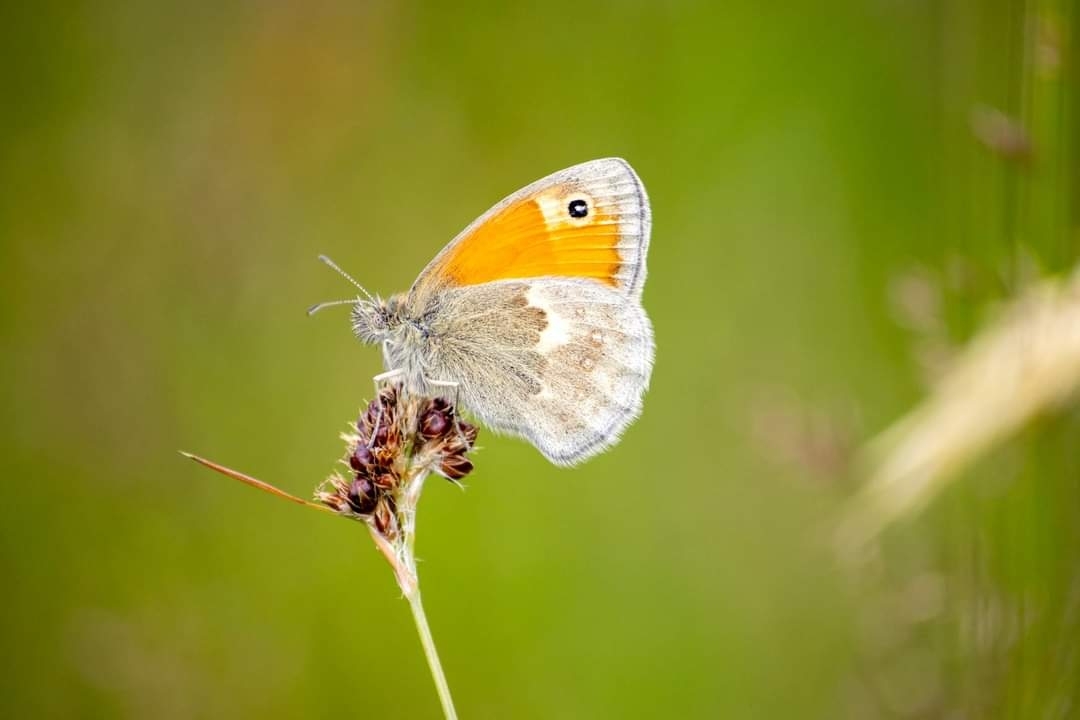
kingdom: Animalia
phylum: Arthropoda
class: Insecta
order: Lepidoptera
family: Nymphalidae
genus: Coenonympha
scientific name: Coenonympha pamphilus
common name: Small heath
